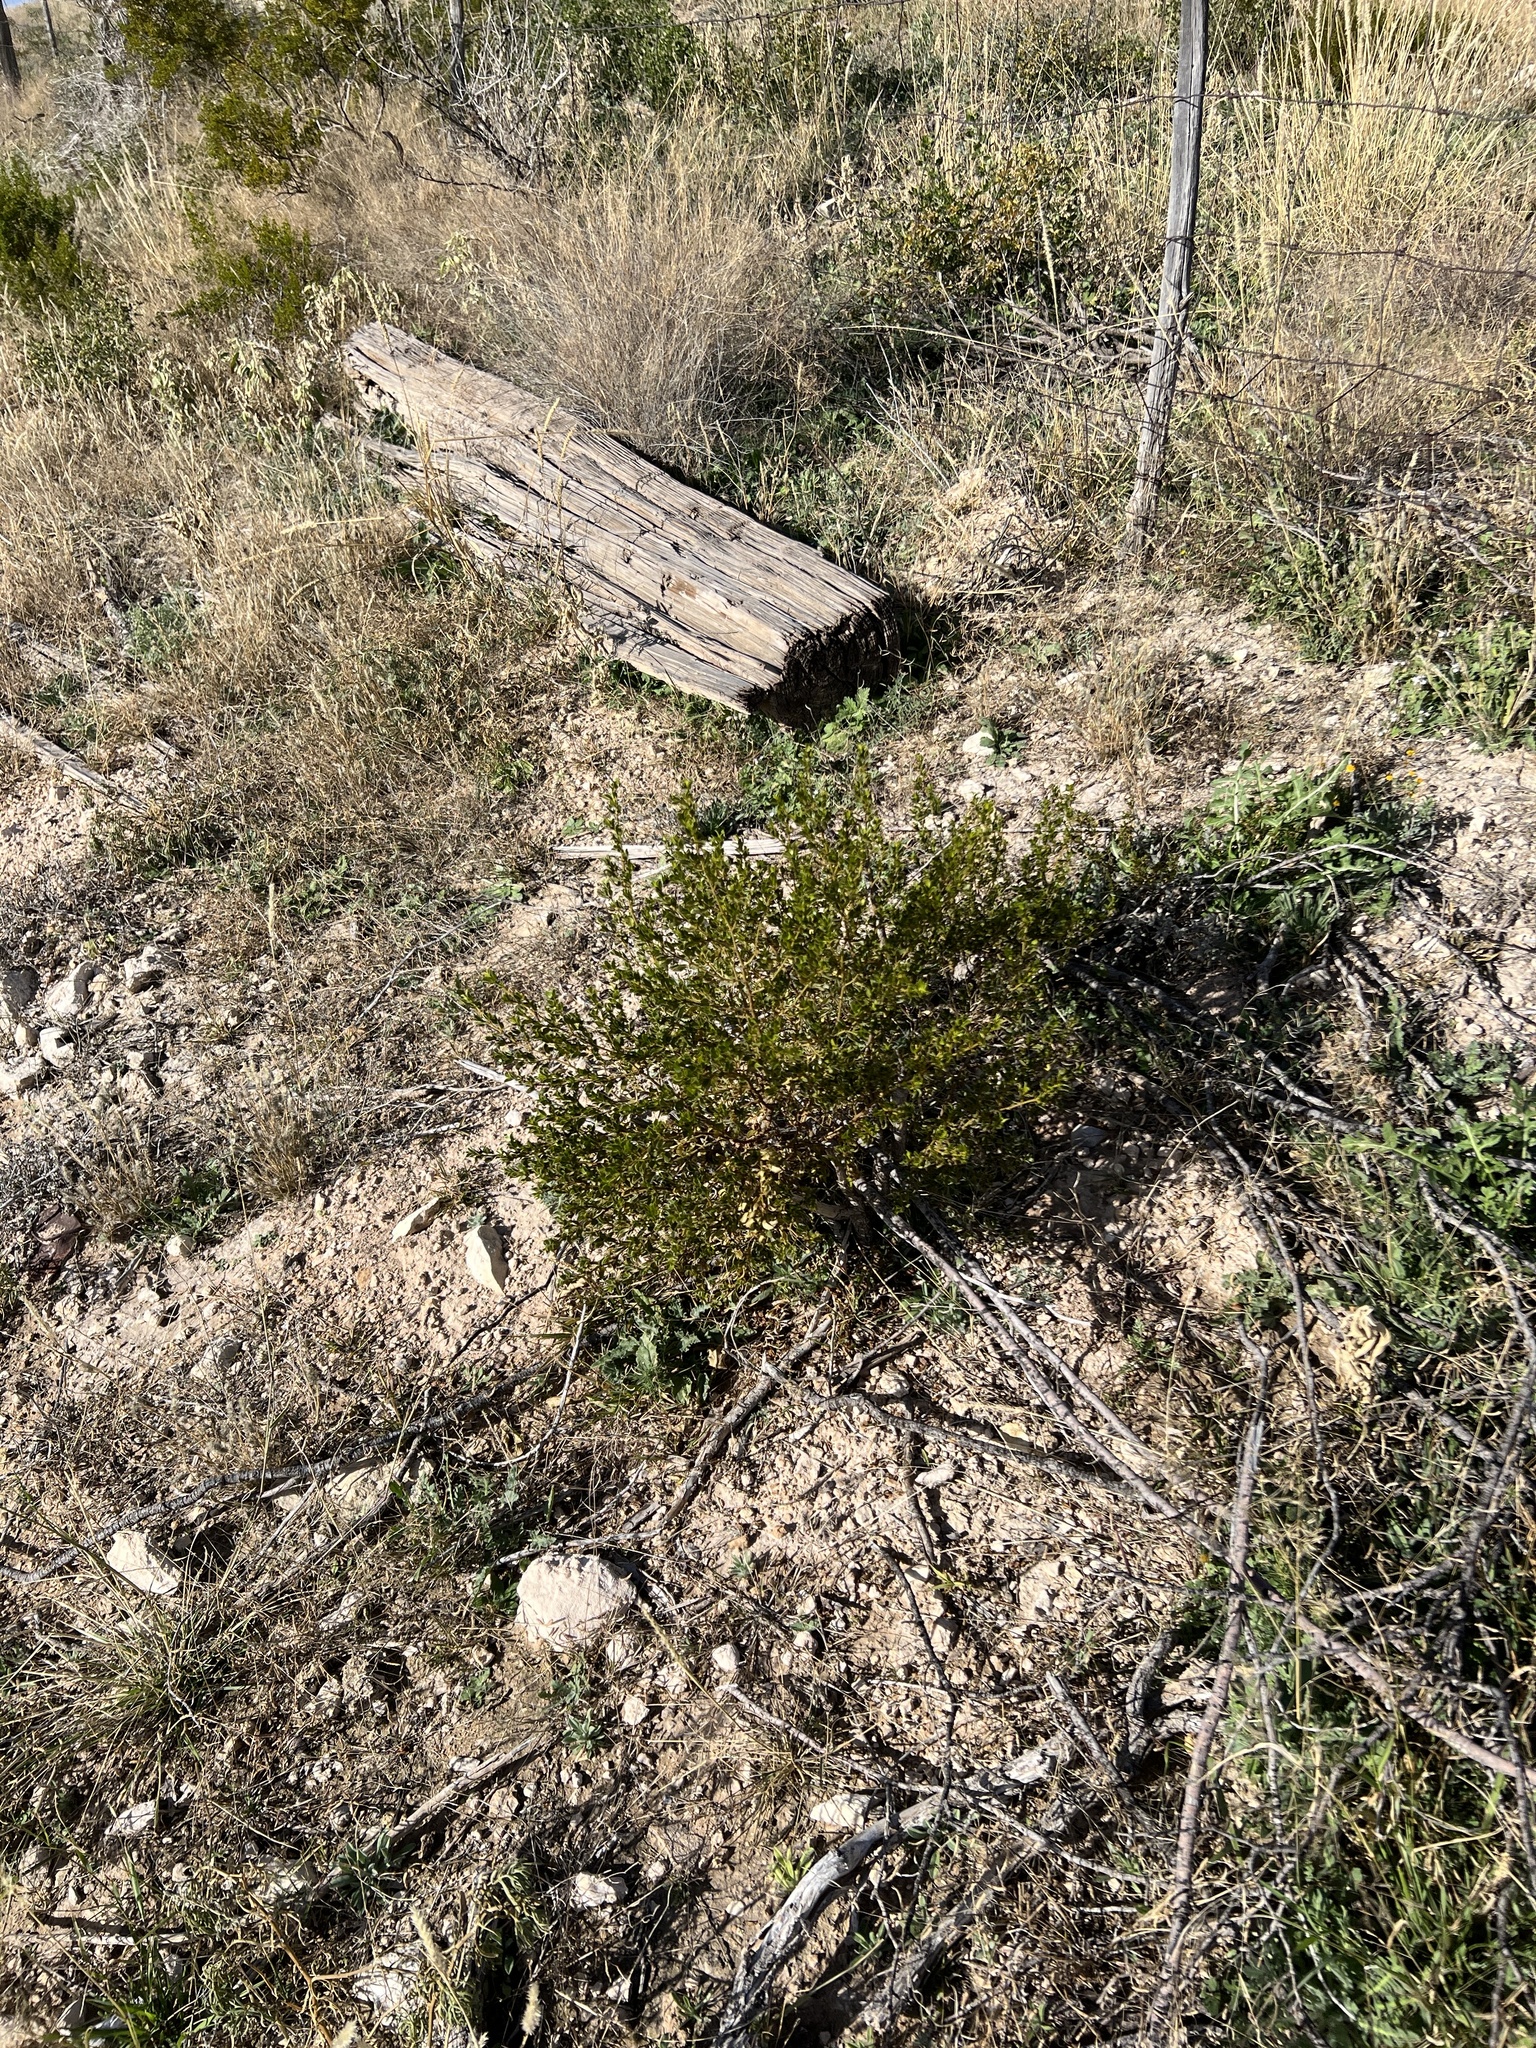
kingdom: Plantae
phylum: Tracheophyta
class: Magnoliopsida
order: Zygophyllales
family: Zygophyllaceae
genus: Larrea
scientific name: Larrea tridentata
